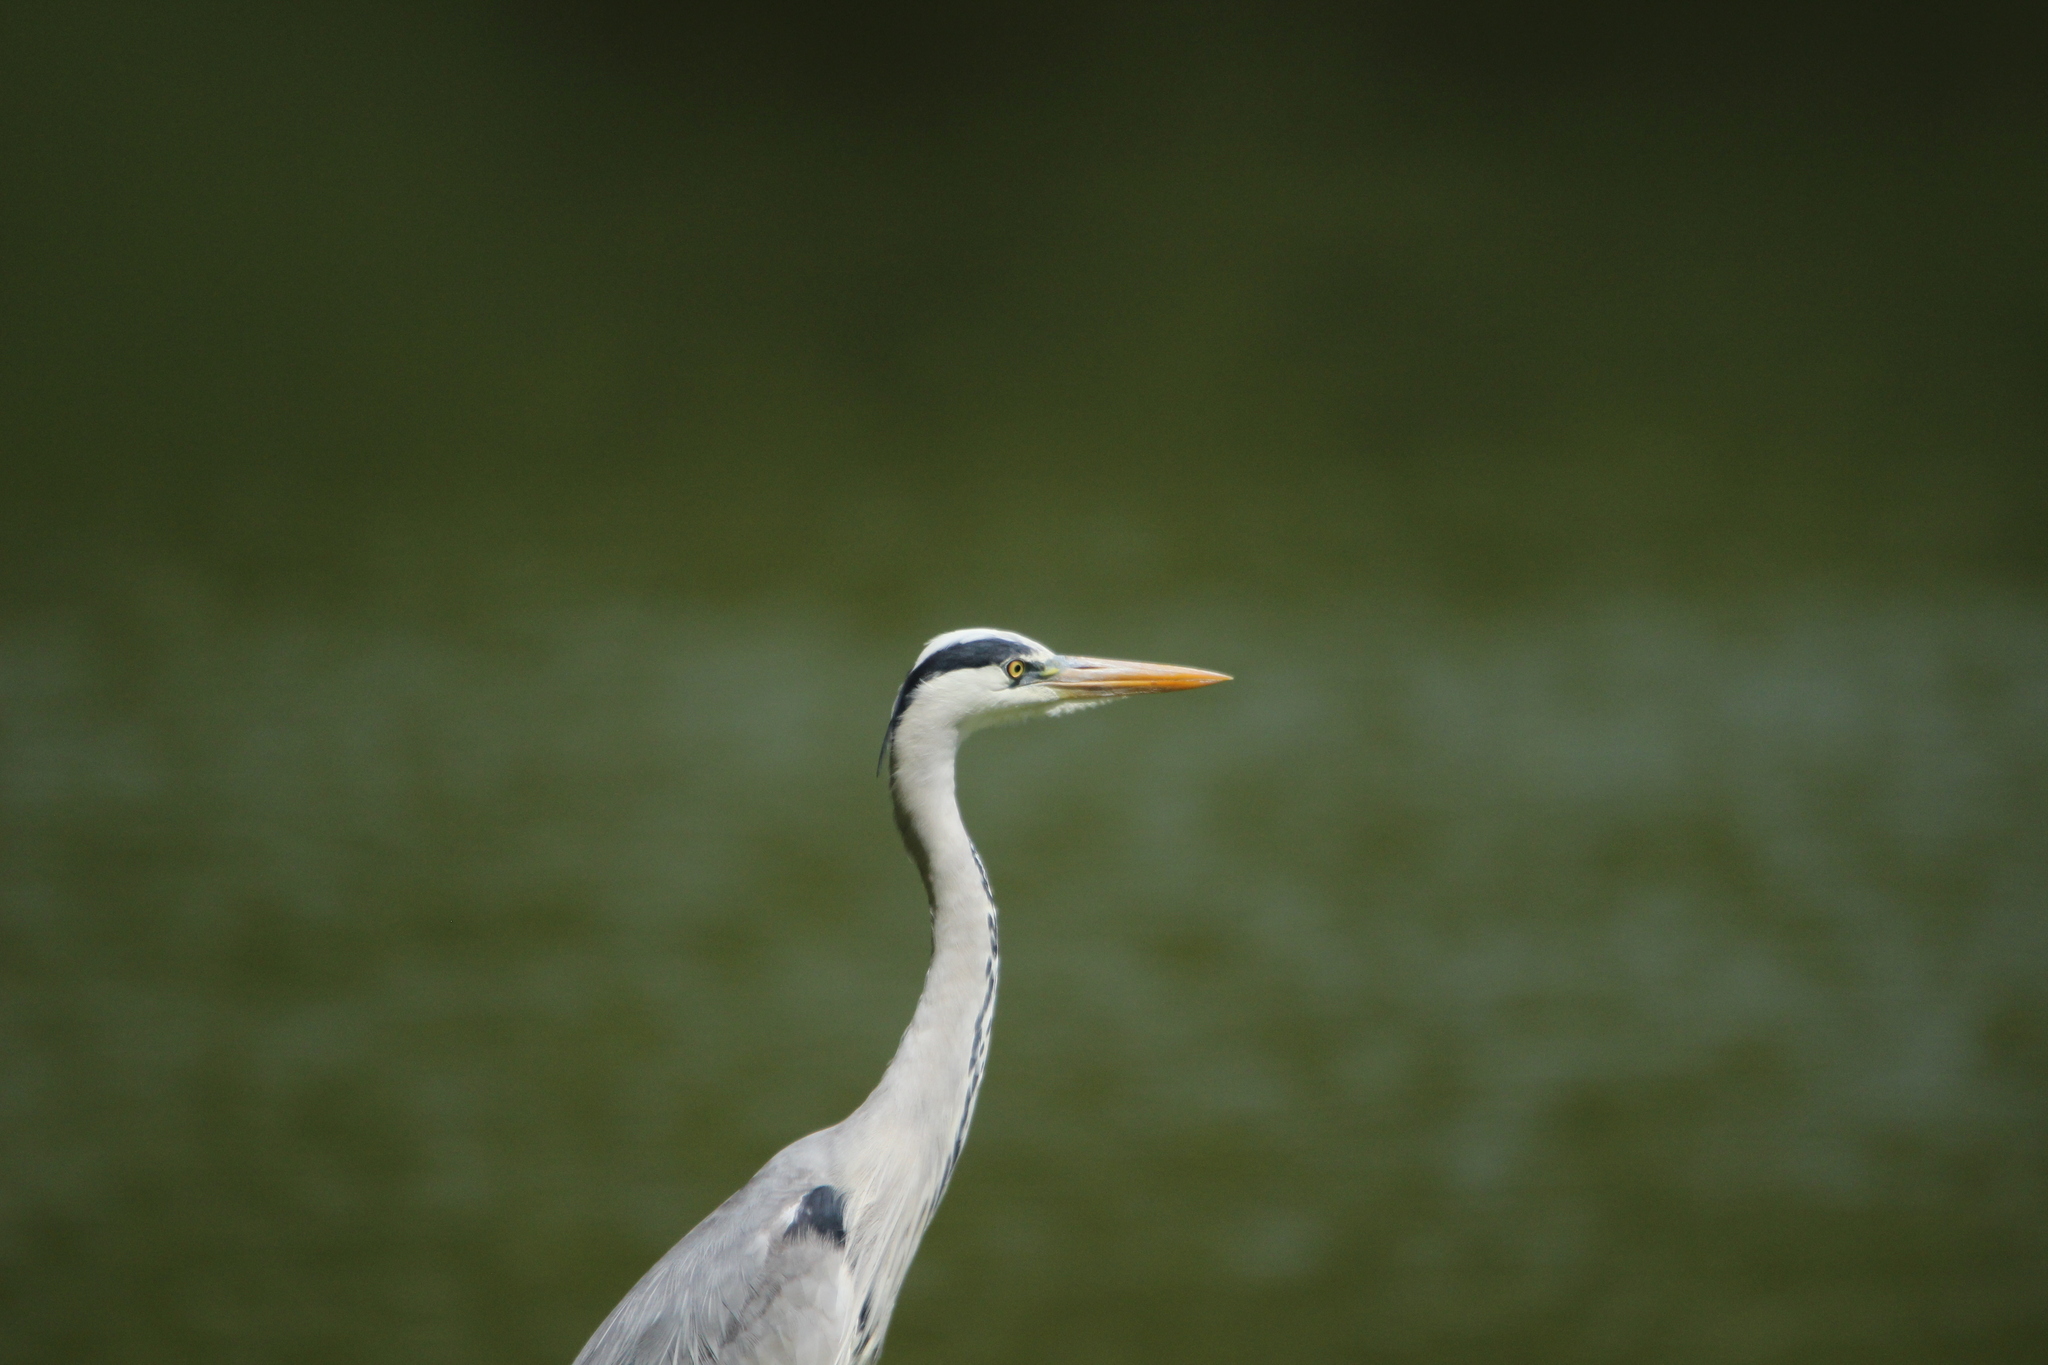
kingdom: Animalia
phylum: Chordata
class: Aves
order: Pelecaniformes
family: Ardeidae
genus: Ardea
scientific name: Ardea cinerea
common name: Grey heron
